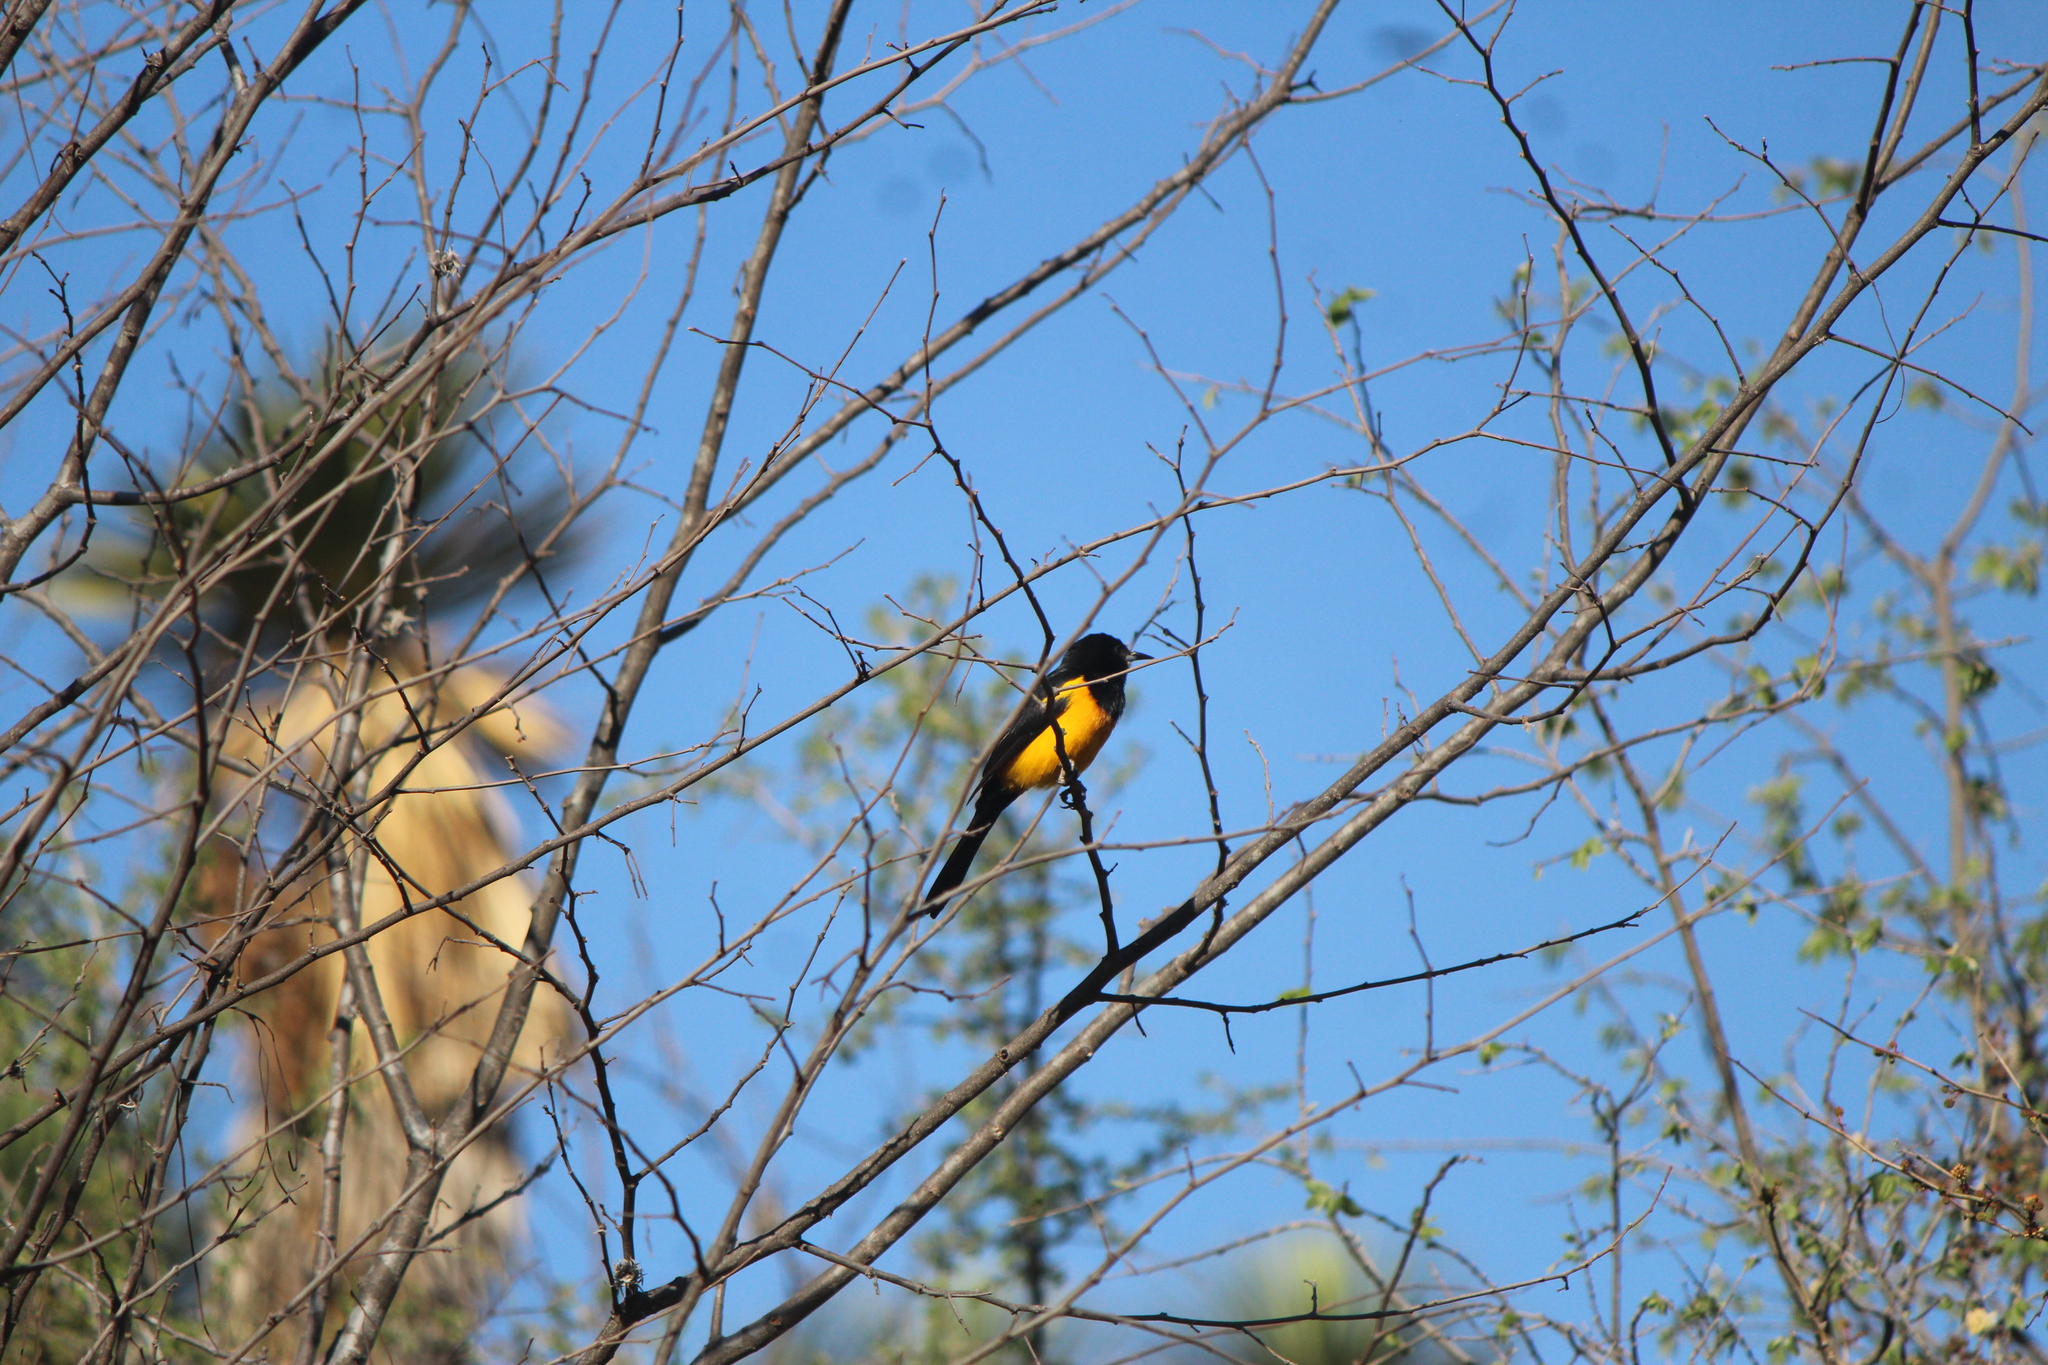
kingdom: Animalia
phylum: Chordata
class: Aves
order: Passeriformes
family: Icteridae
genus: Icterus
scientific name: Icterus wagleri
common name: Black-vented oriole
